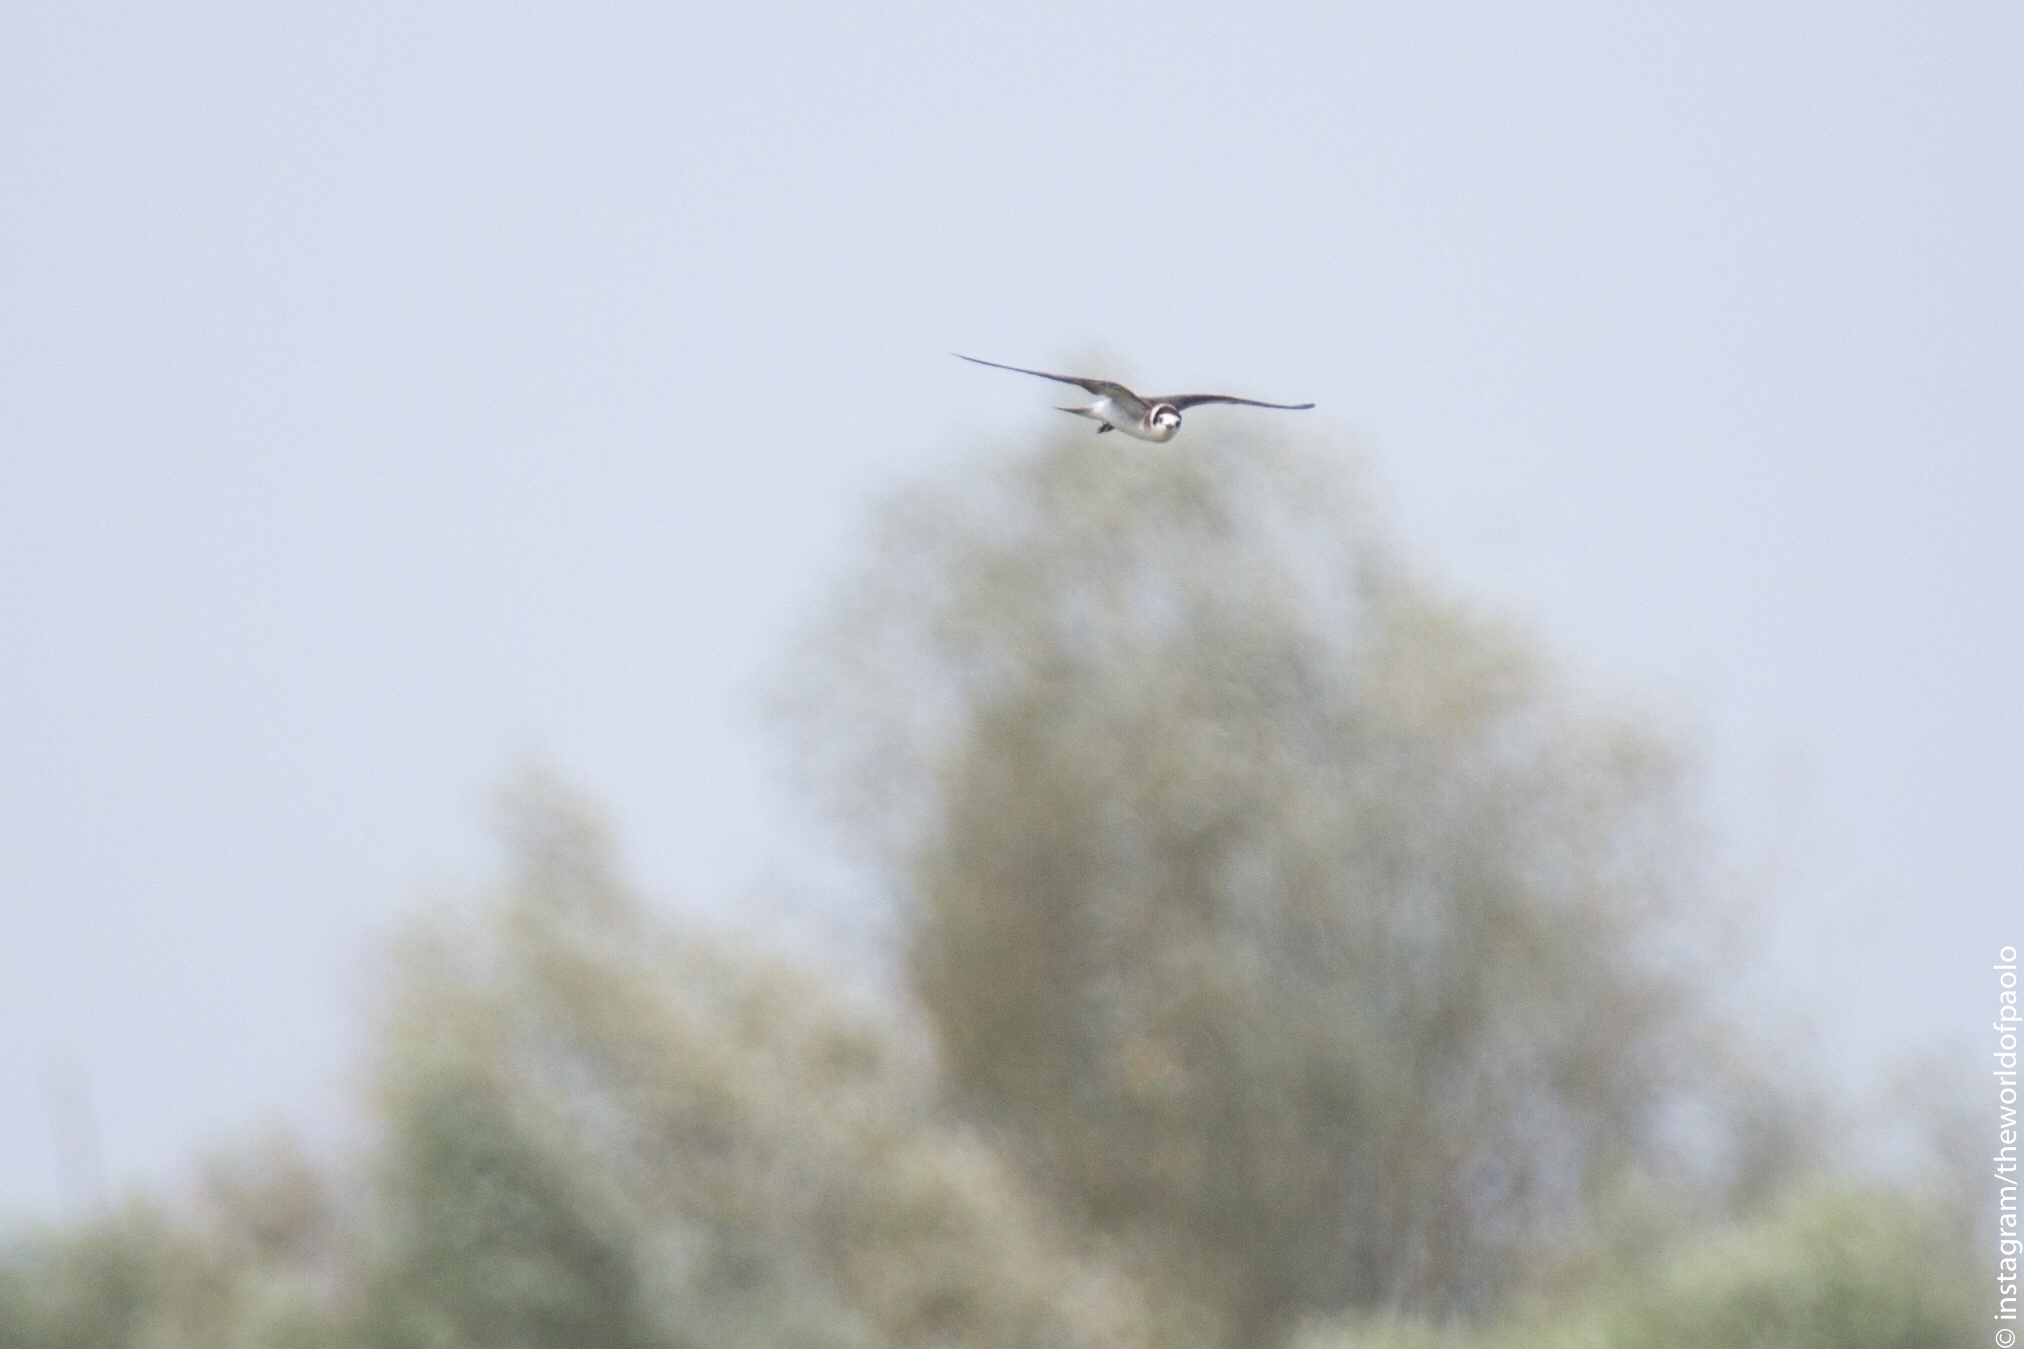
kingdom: Animalia
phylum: Chordata
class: Aves
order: Charadriiformes
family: Laridae
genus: Chlidonias
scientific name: Chlidonias niger
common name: Black tern
